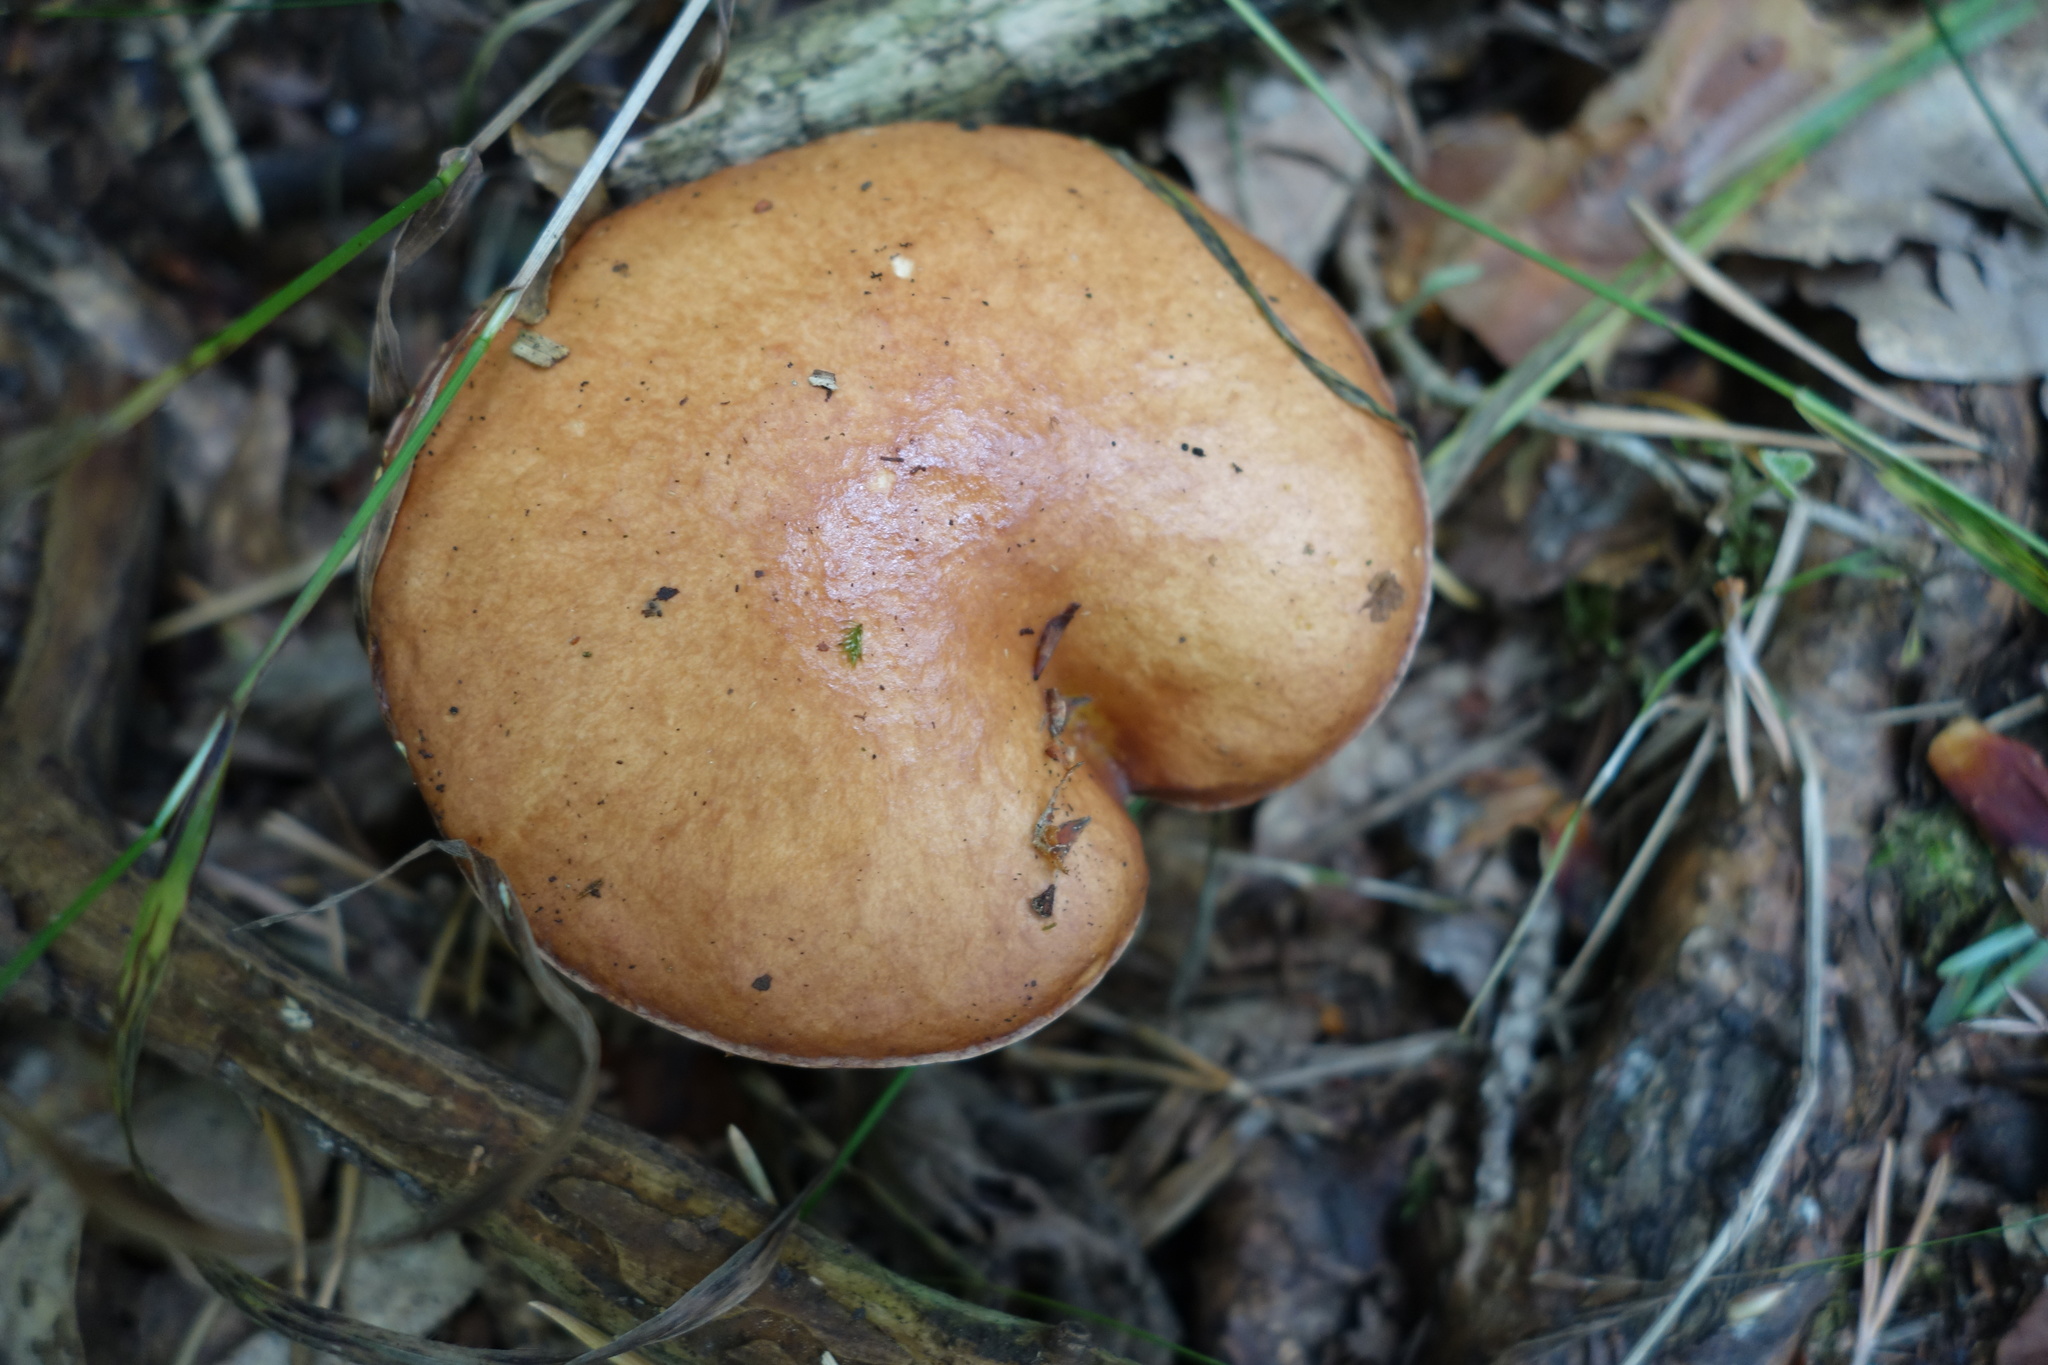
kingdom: Fungi
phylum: Basidiomycota
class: Agaricomycetes
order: Boletales
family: Suillaceae
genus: Suillus
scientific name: Suillus granulatus
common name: Weeping bolete
